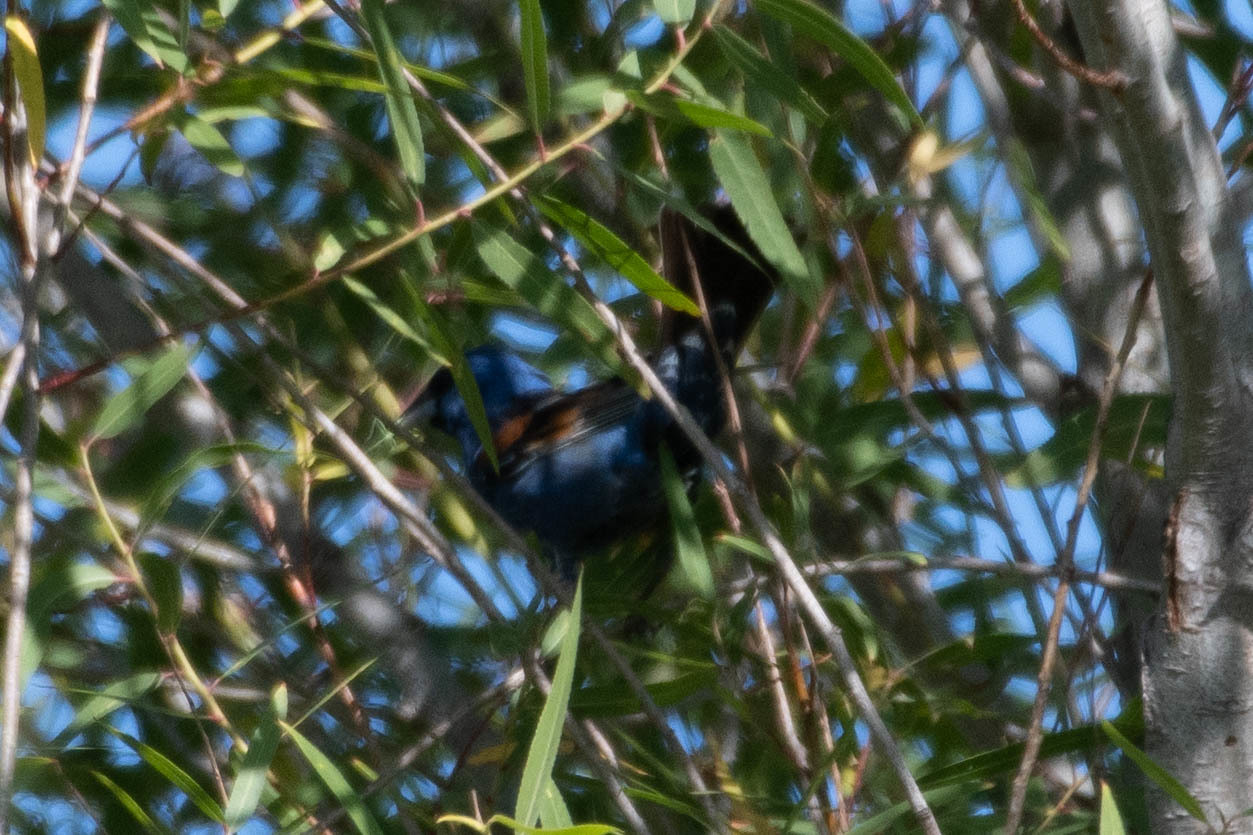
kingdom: Animalia
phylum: Chordata
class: Aves
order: Passeriformes
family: Cardinalidae
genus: Passerina
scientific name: Passerina caerulea
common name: Blue grosbeak
